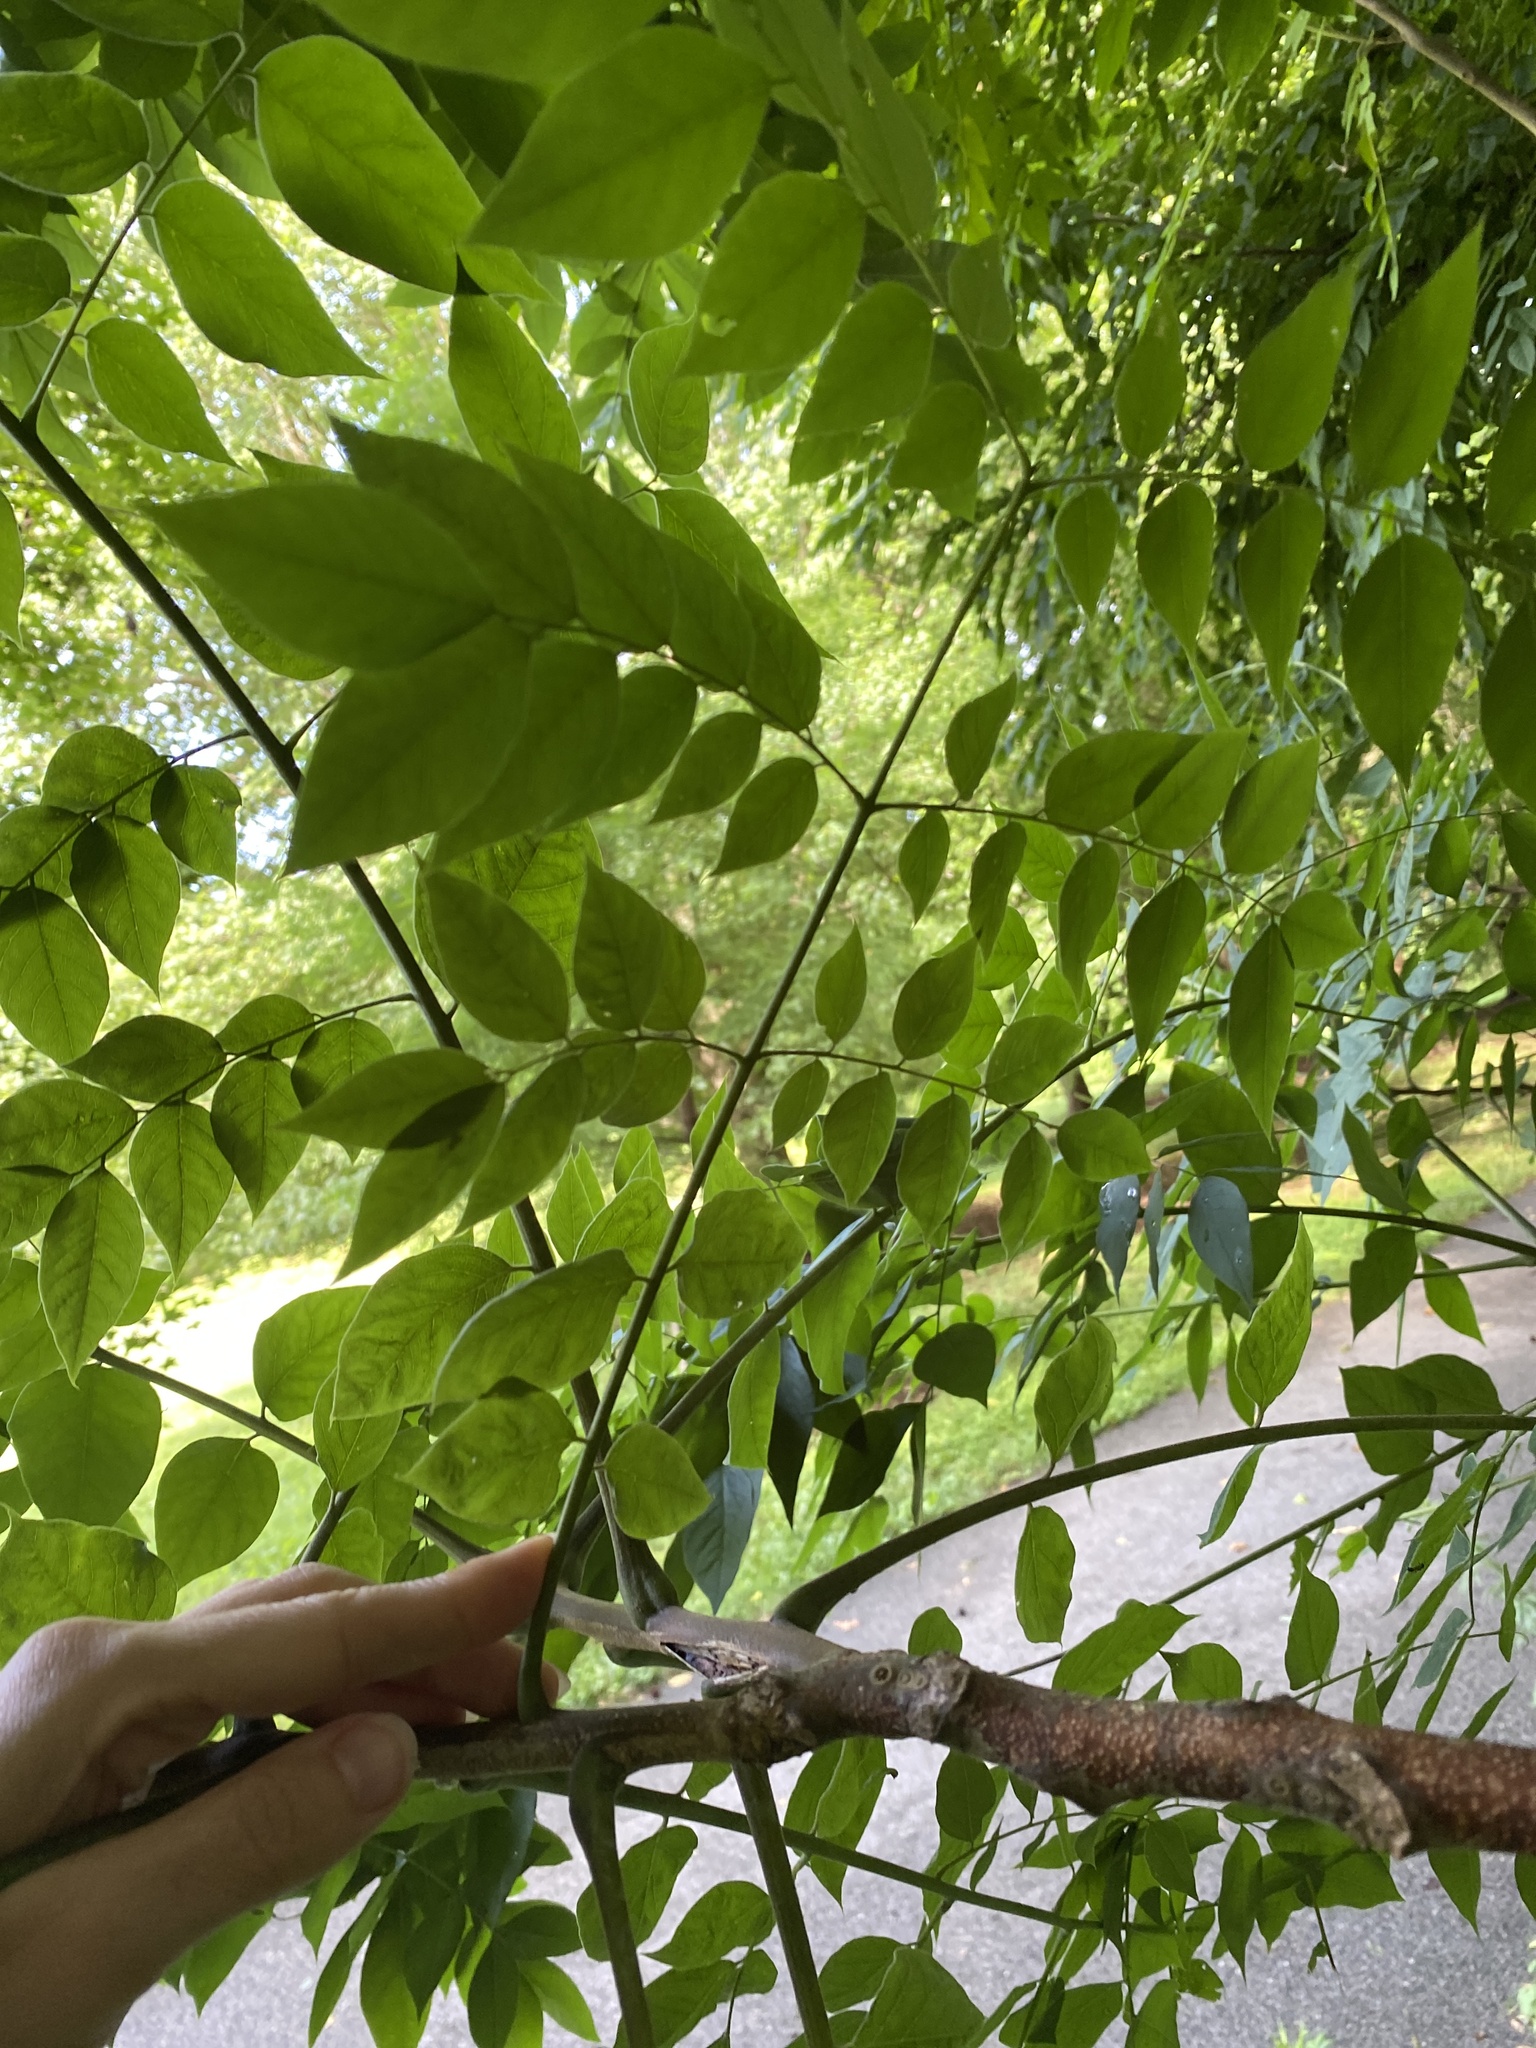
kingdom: Plantae
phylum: Tracheophyta
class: Magnoliopsida
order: Fabales
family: Fabaceae
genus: Gymnocladus
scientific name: Gymnocladus dioicus
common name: Kentucky coffee-tree
